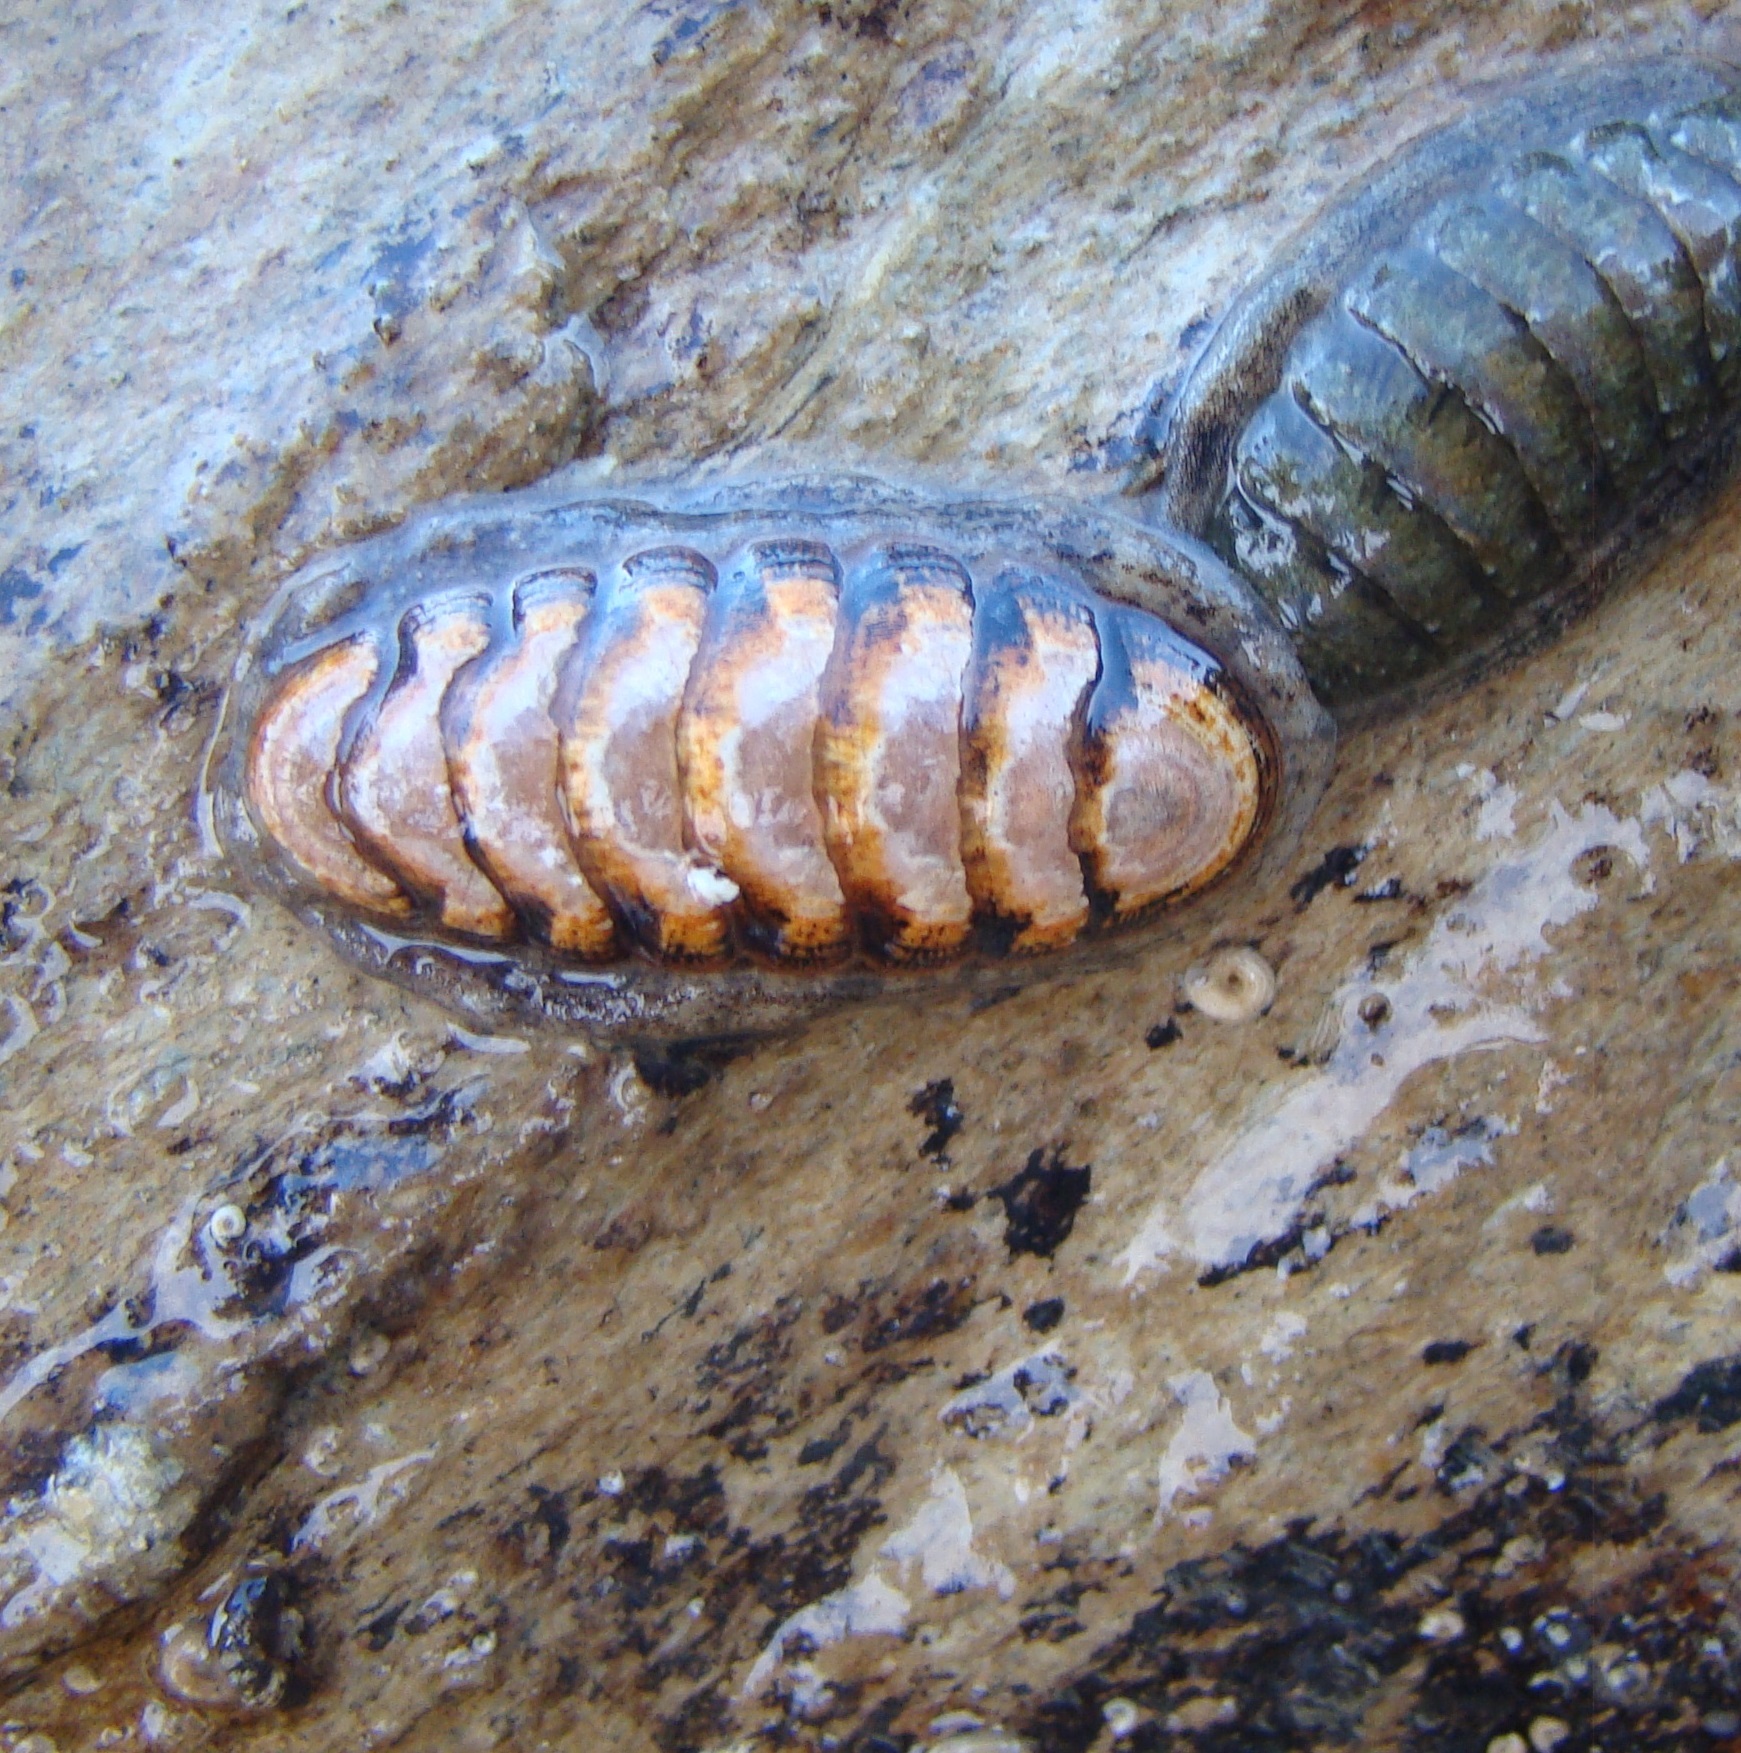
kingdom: Animalia
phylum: Mollusca
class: Polyplacophora
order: Chitonida
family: Ischnochitonidae
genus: Ischnochiton
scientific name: Ischnochiton maorianus
